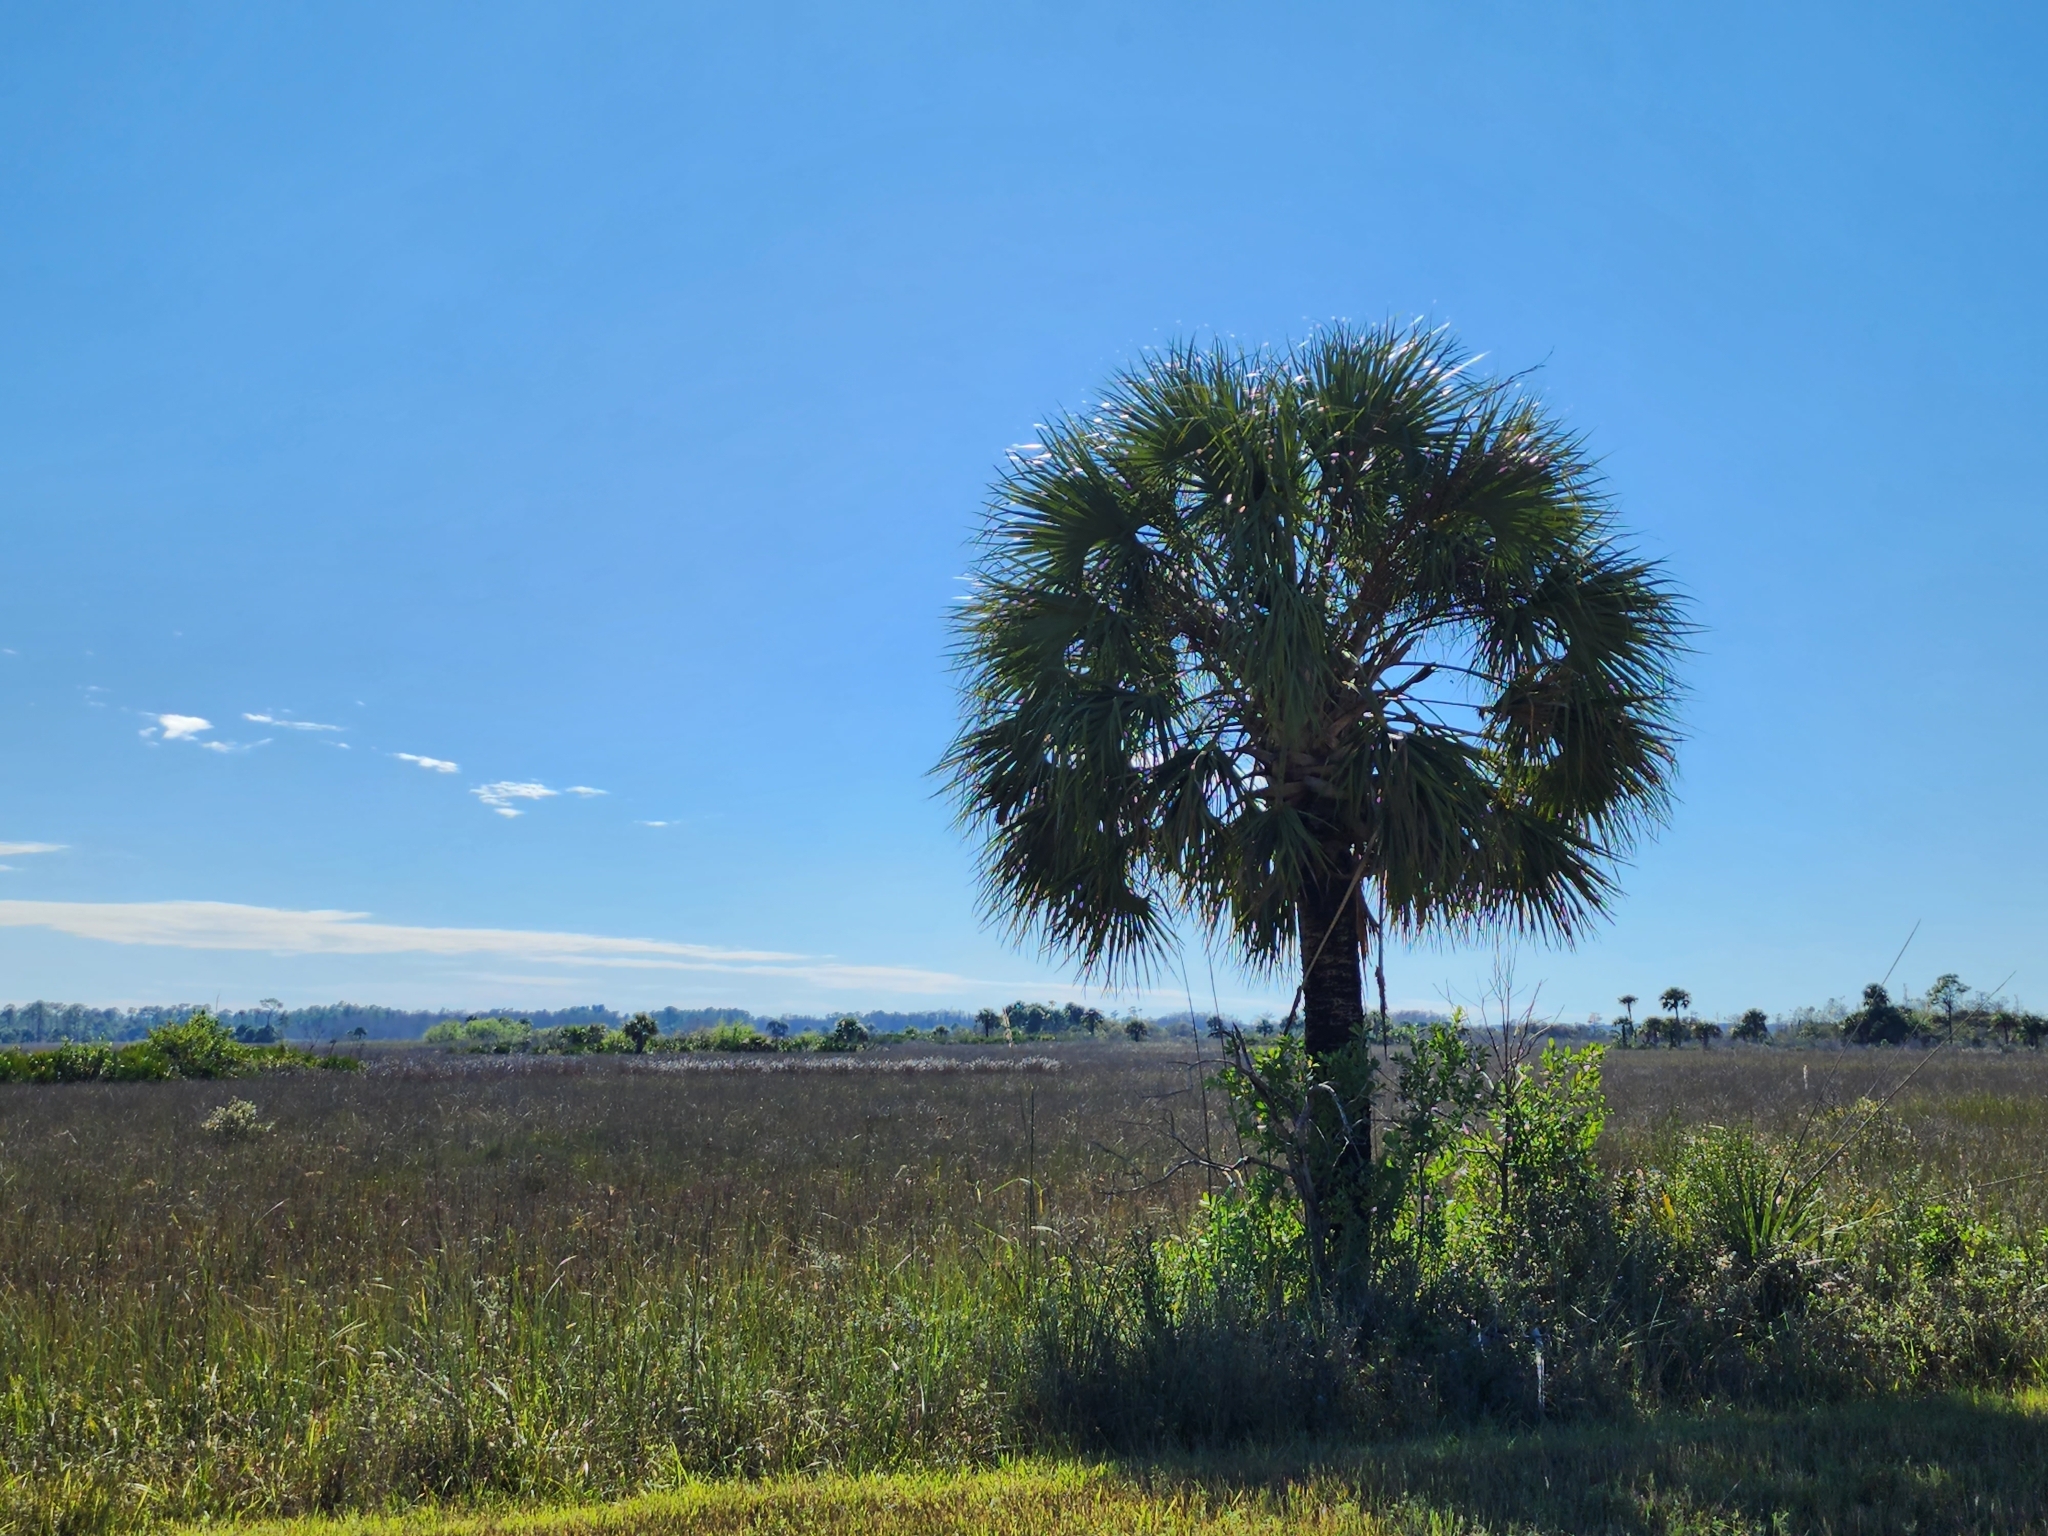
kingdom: Plantae
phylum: Tracheophyta
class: Liliopsida
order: Arecales
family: Arecaceae
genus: Sabal
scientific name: Sabal palmetto
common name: Blue palmetto
